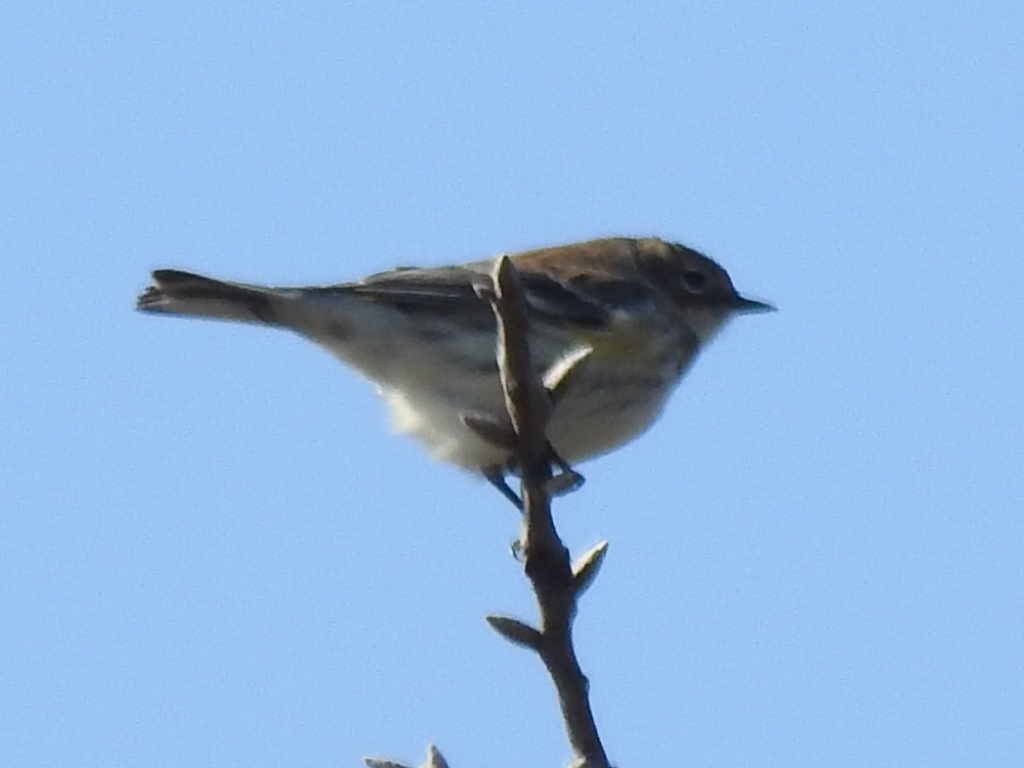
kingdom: Animalia
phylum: Chordata
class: Aves
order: Passeriformes
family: Parulidae
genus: Setophaga
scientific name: Setophaga coronata
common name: Myrtle warbler
